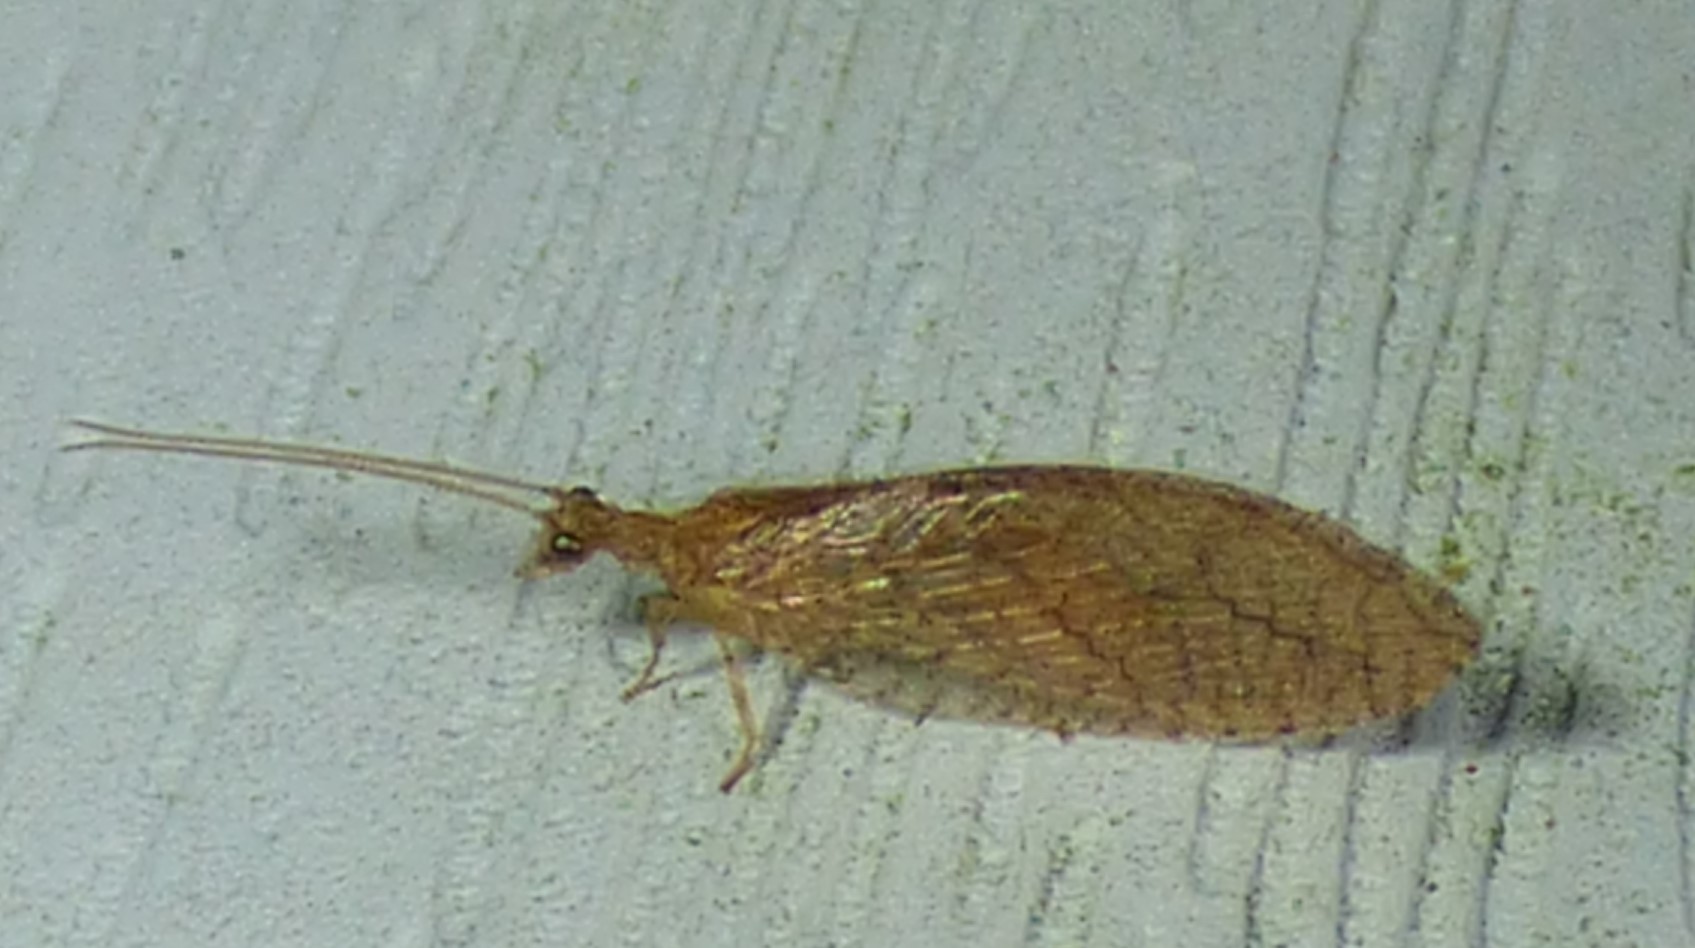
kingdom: Animalia
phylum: Arthropoda
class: Insecta
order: Neuroptera
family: Hemerobiidae
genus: Micromus
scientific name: Micromus posticus
